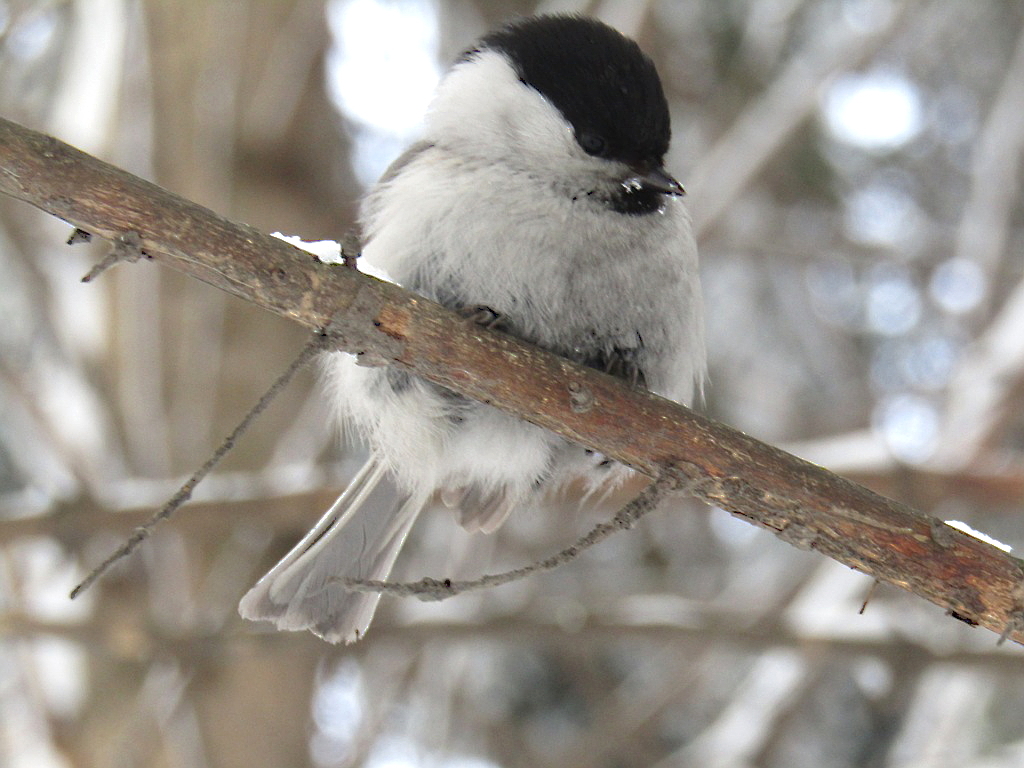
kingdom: Animalia
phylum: Chordata
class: Aves
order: Passeriformes
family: Paridae
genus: Poecile
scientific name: Poecile montanus
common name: Willow tit
